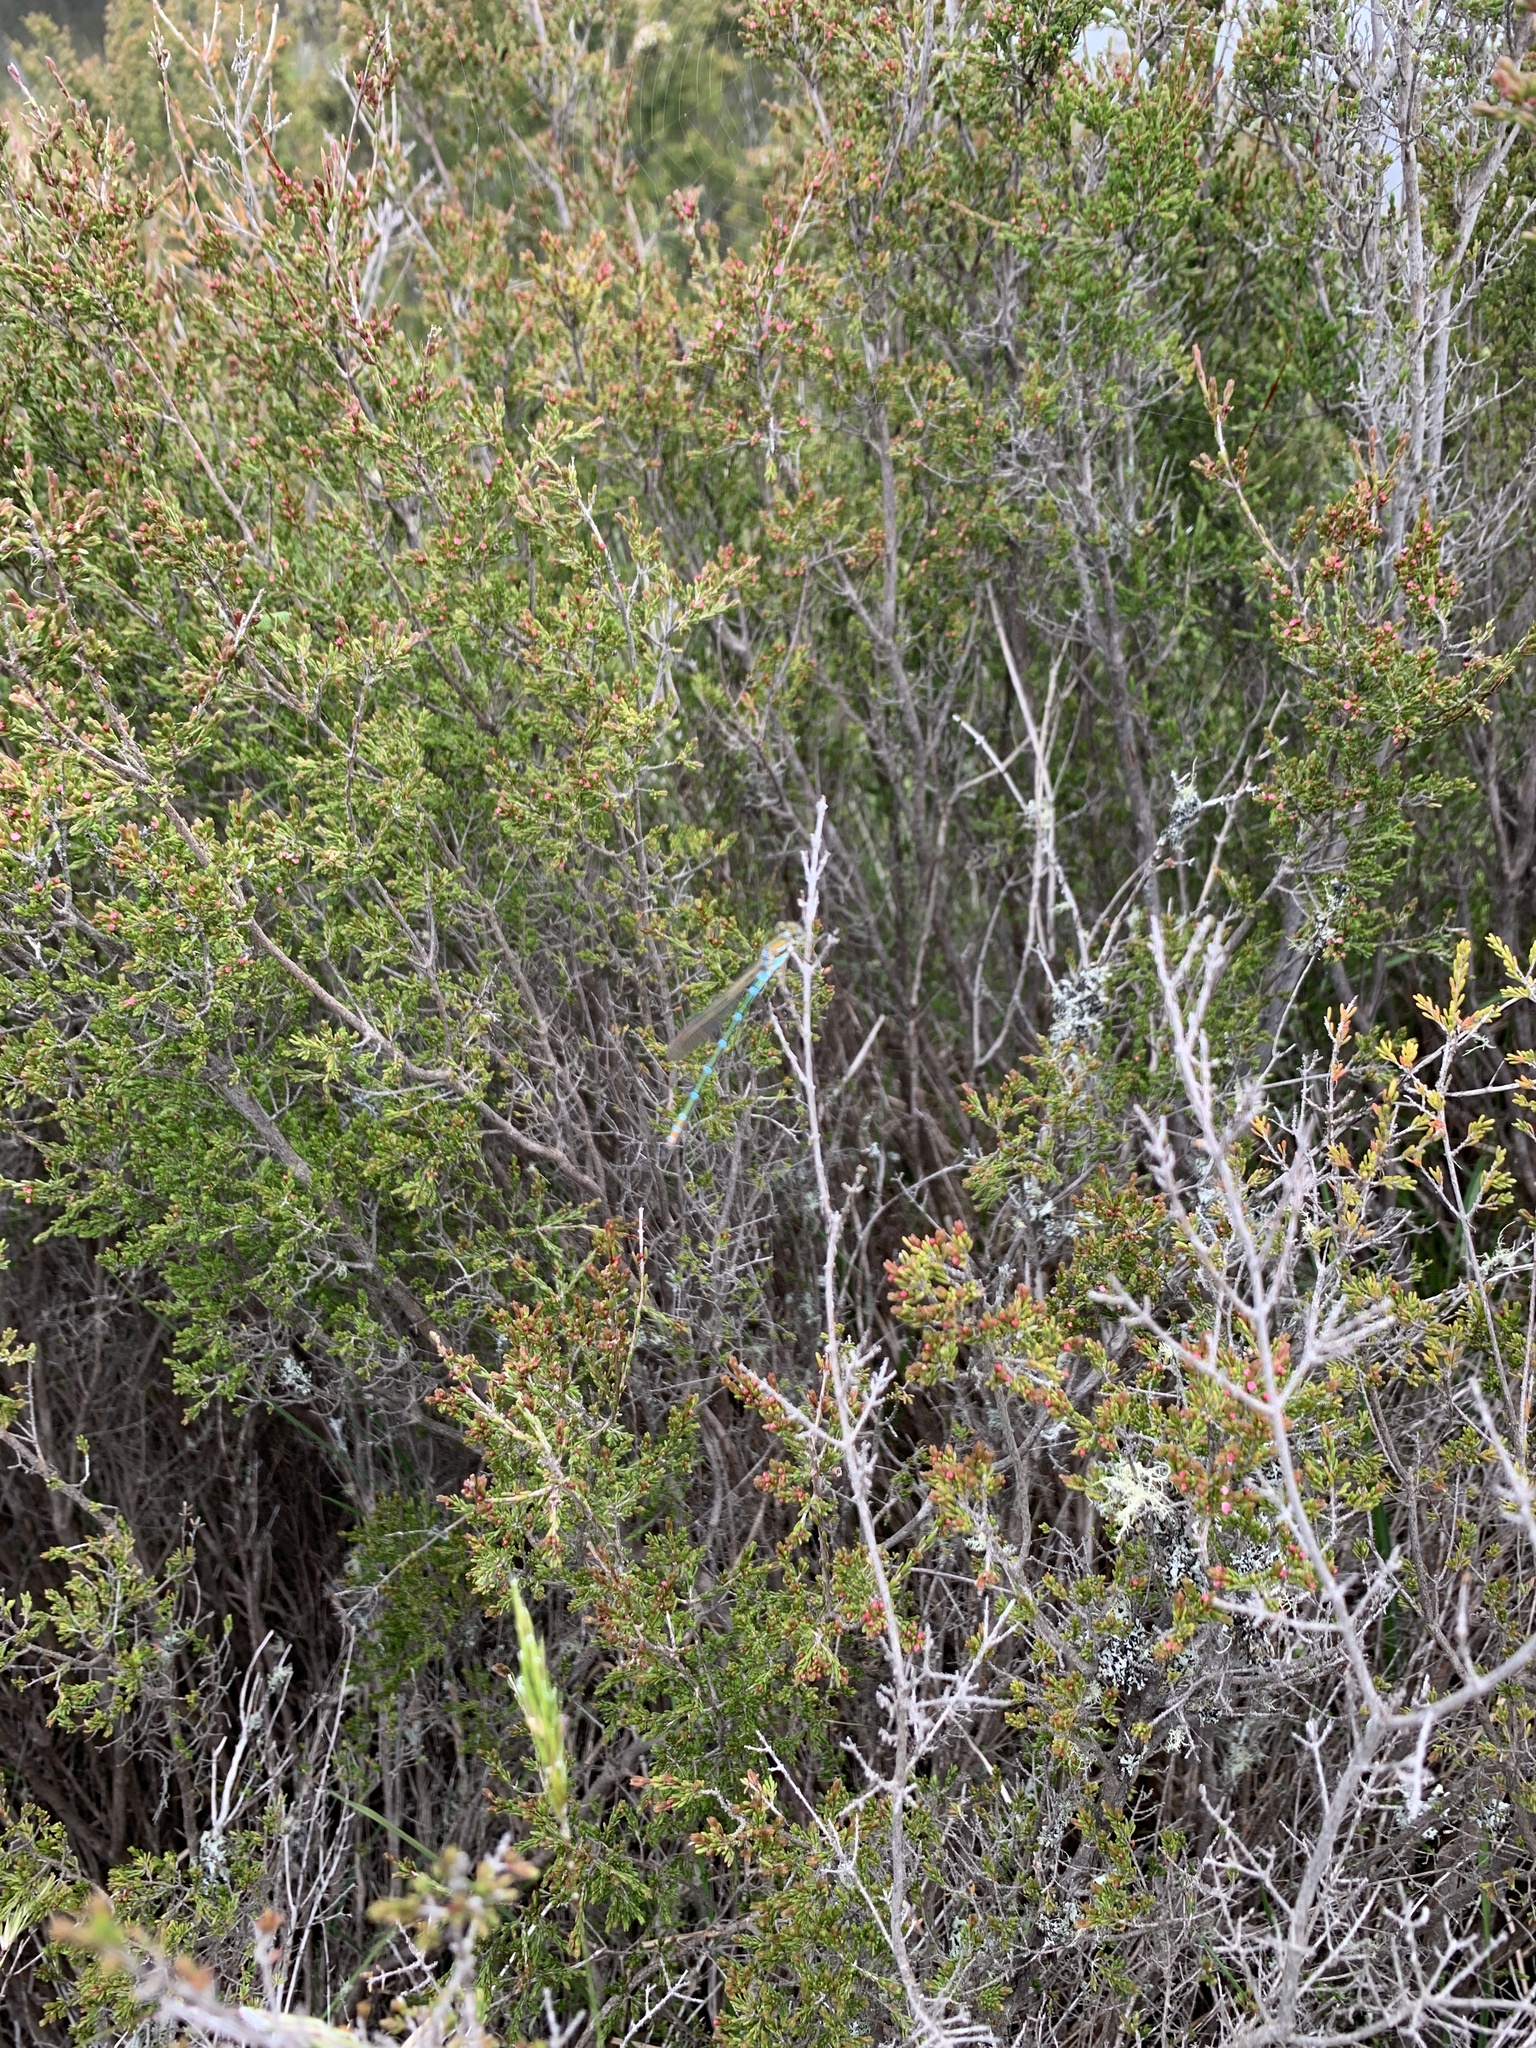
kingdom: Animalia
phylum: Arthropoda
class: Insecta
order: Odonata
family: Lestidae
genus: Austrolestes
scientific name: Austrolestes cingulatus
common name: Metallic ringtail
